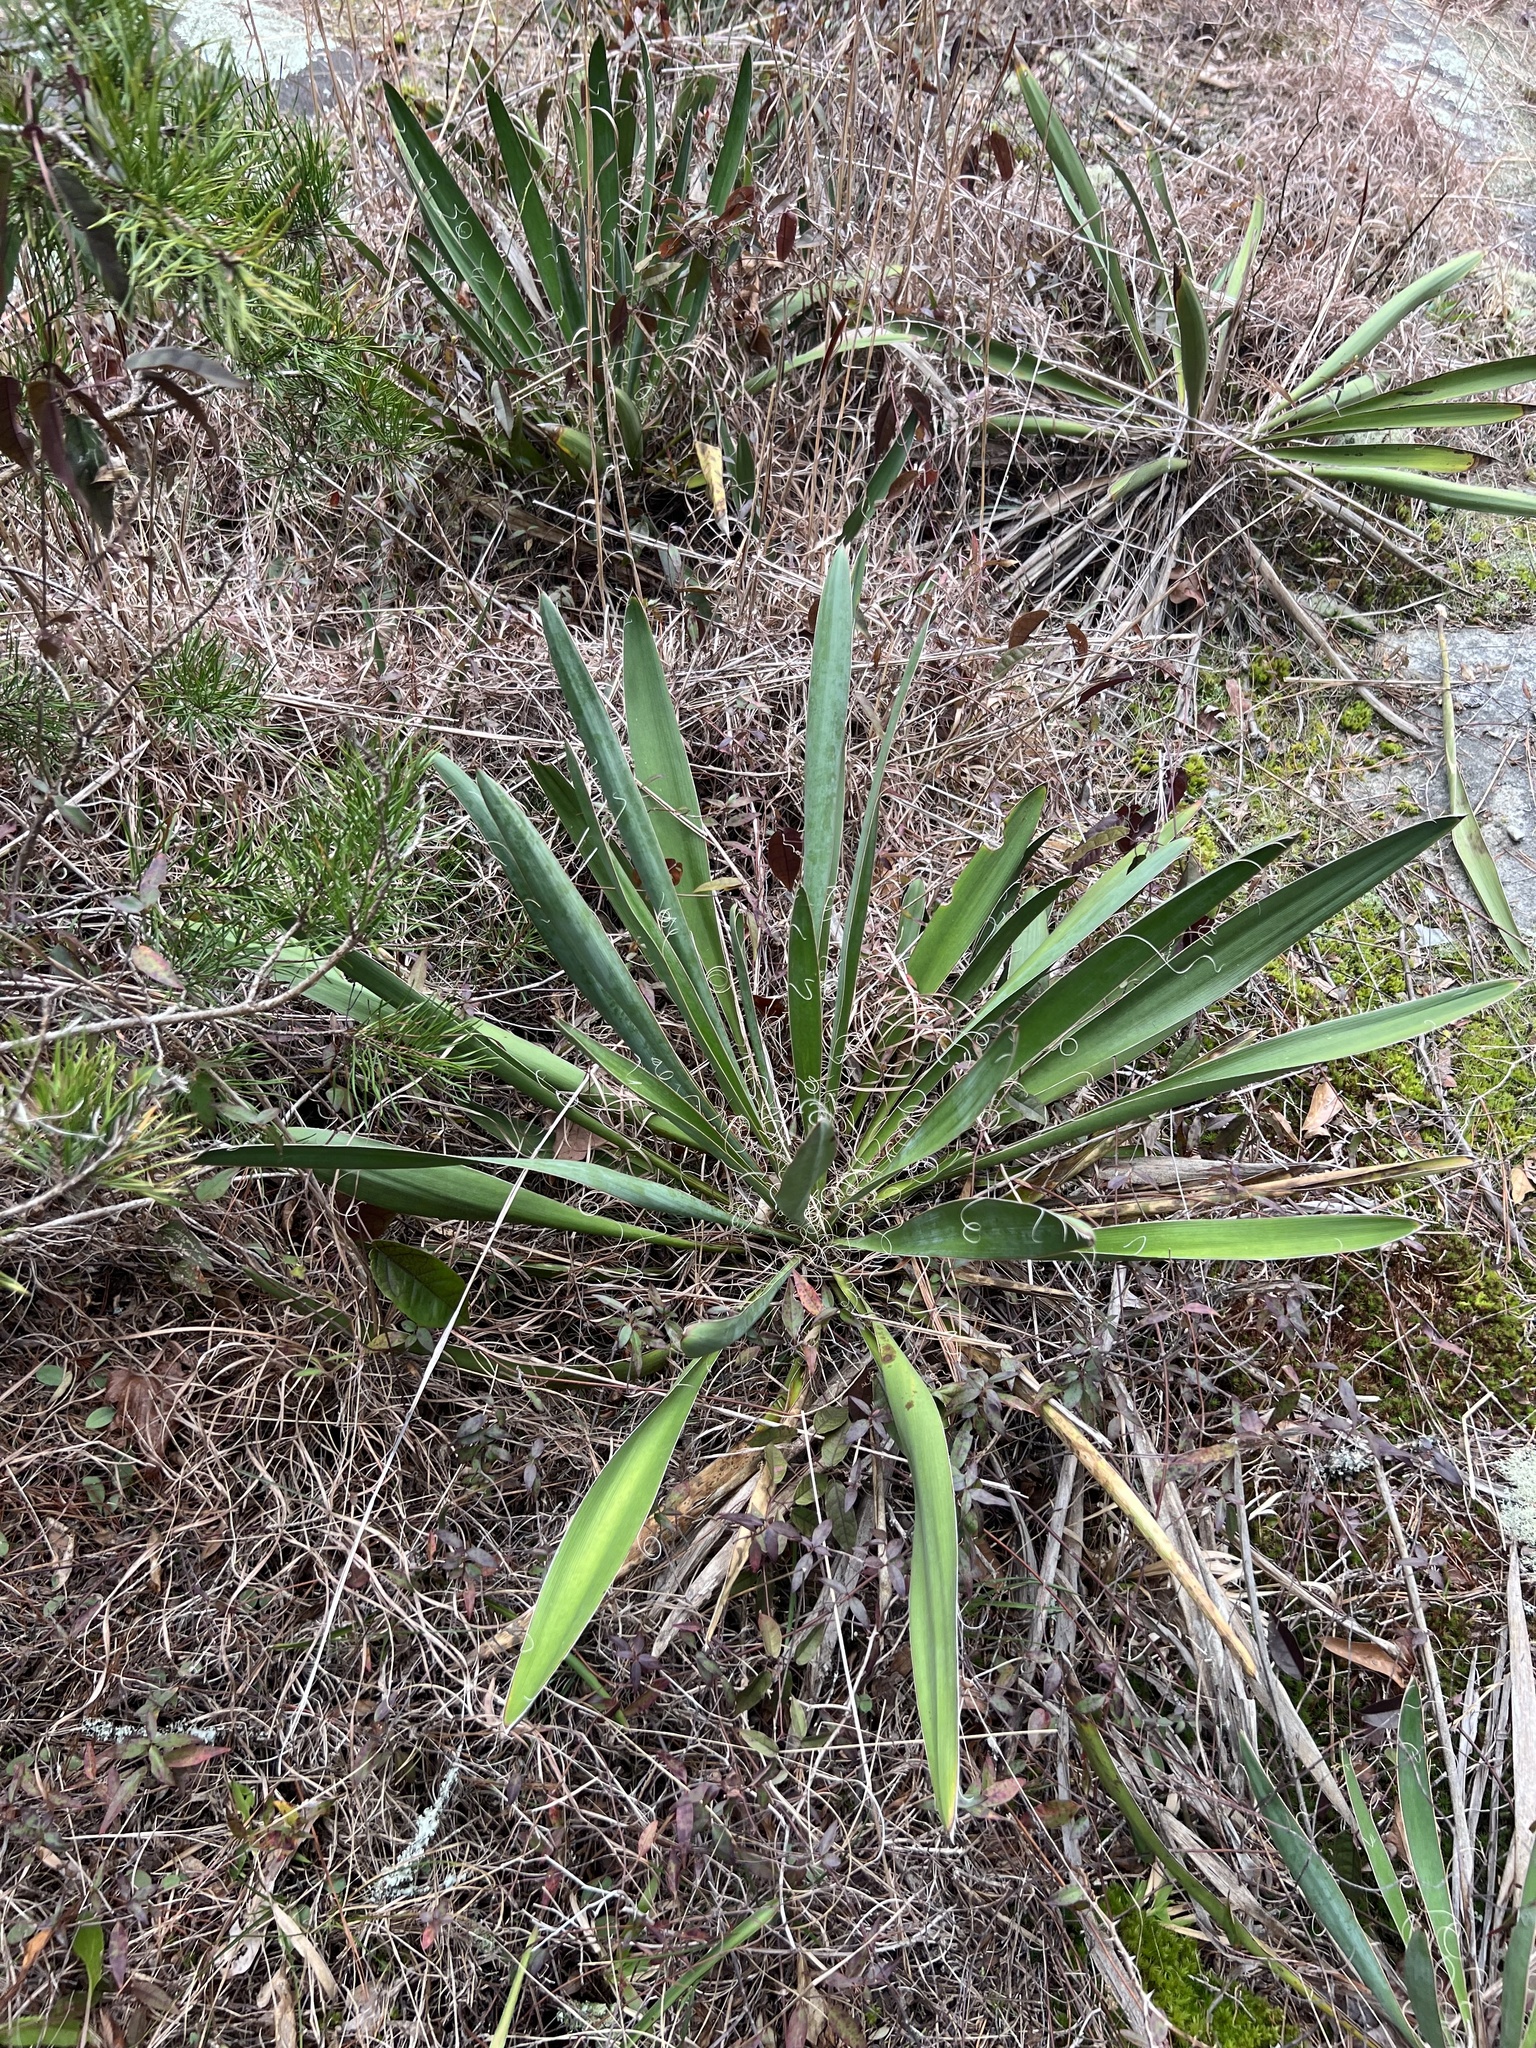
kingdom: Plantae
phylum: Tracheophyta
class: Liliopsida
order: Asparagales
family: Asparagaceae
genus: Yucca
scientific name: Yucca filamentosa
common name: Adam's-needle
